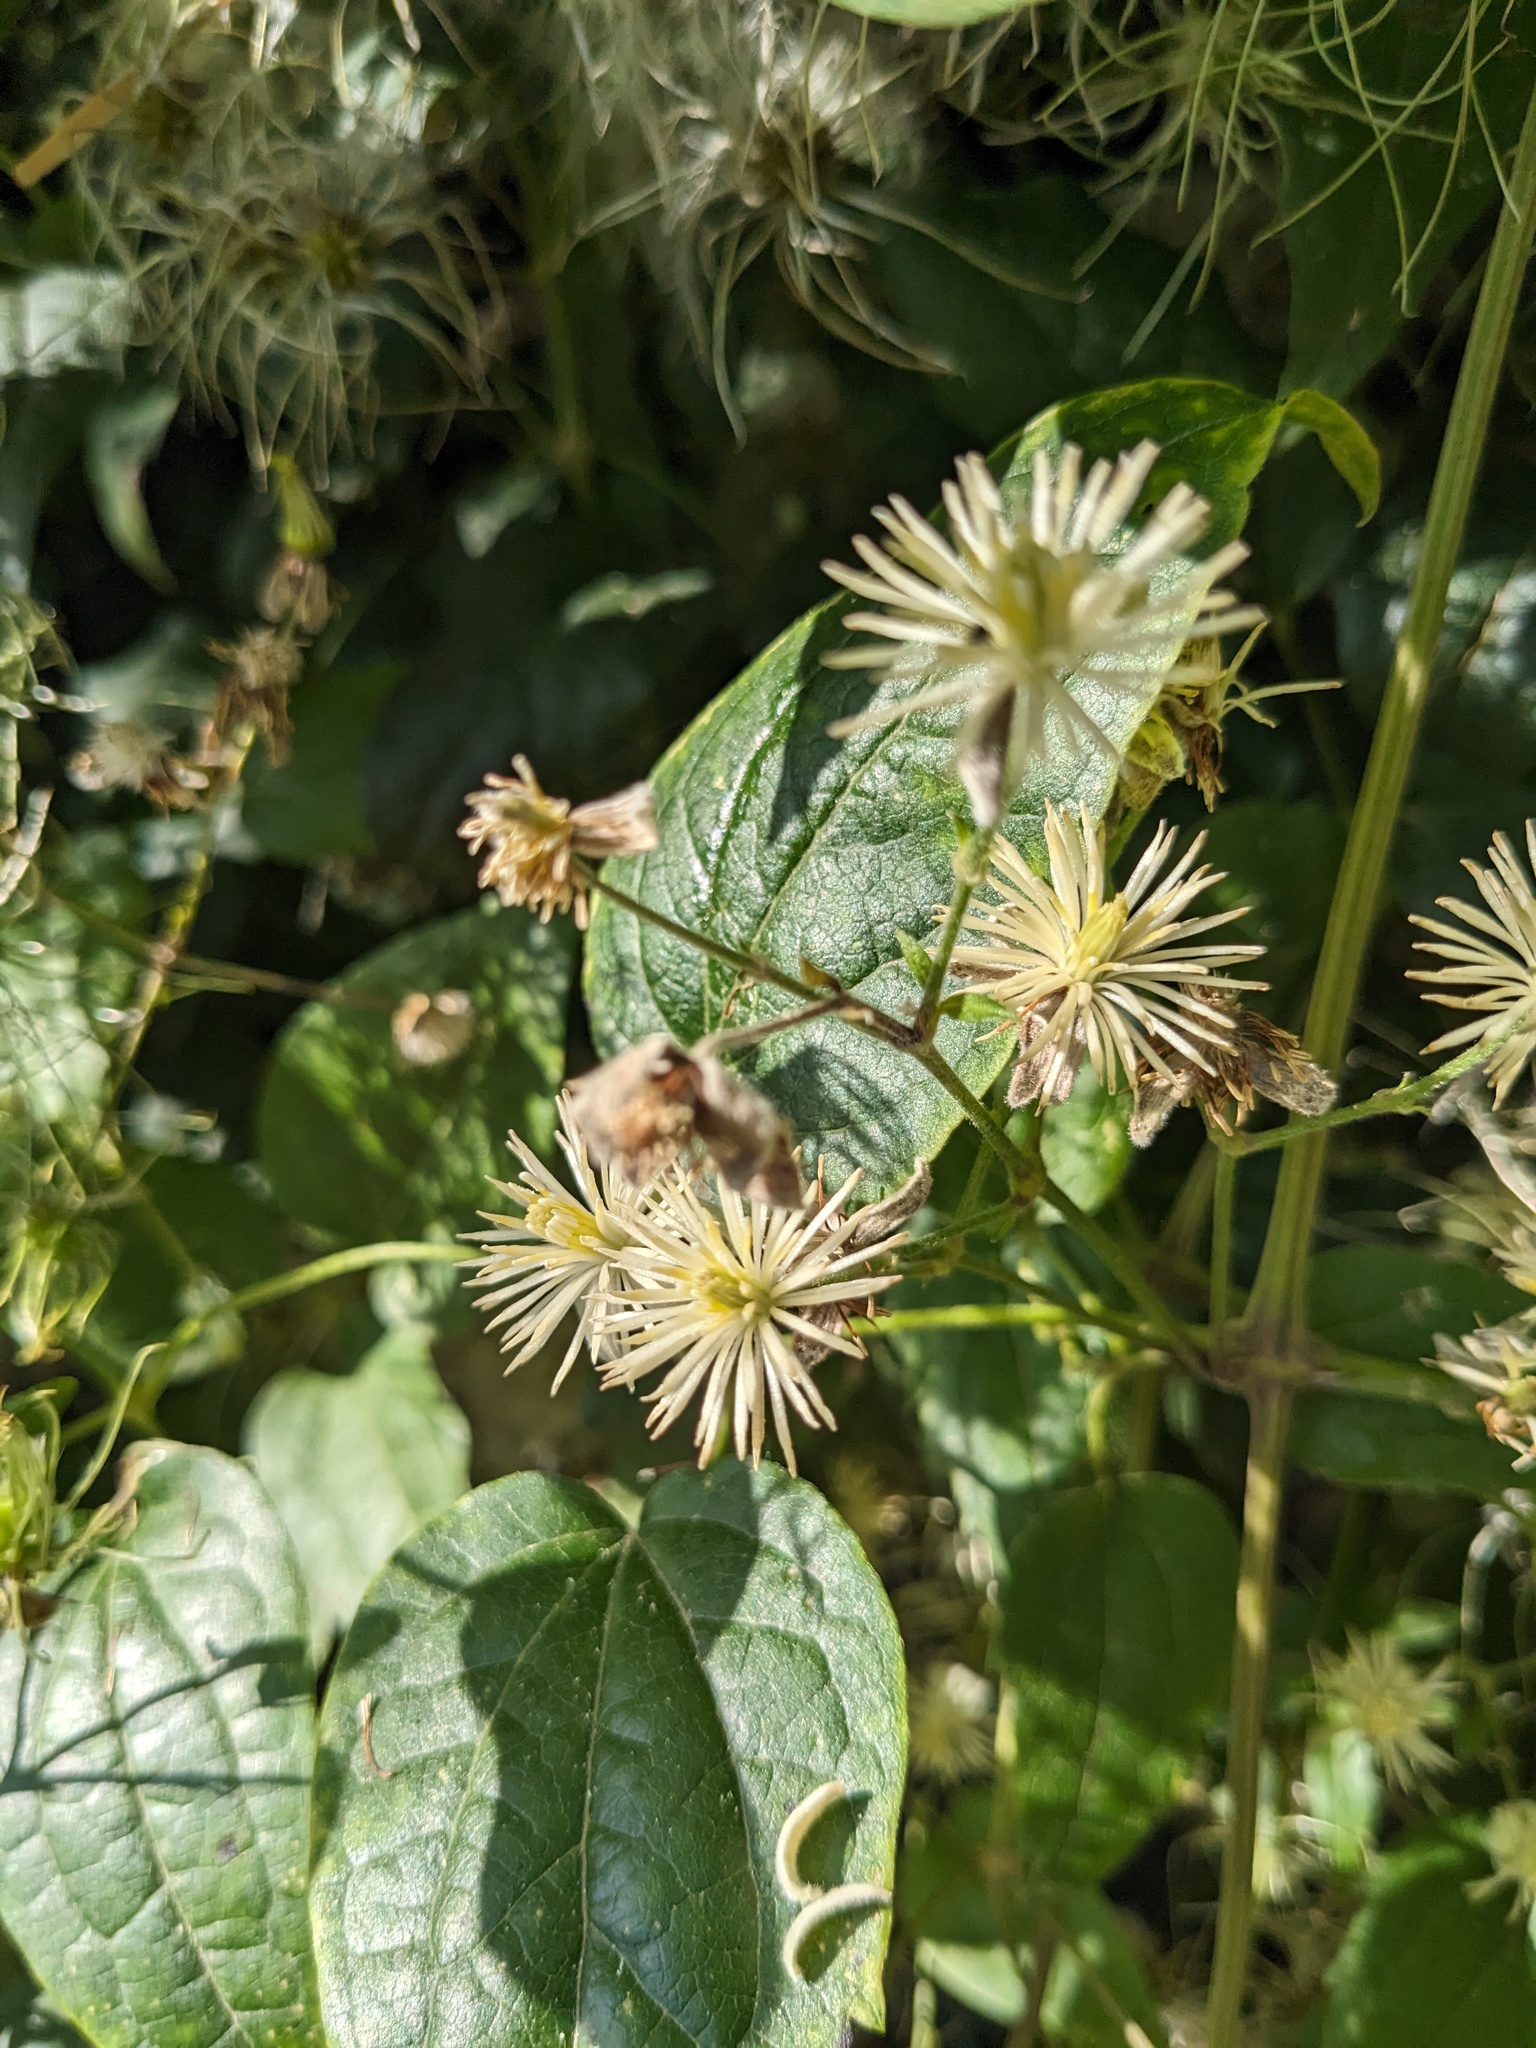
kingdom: Plantae
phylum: Tracheophyta
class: Magnoliopsida
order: Ranunculales
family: Ranunculaceae
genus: Clematis
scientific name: Clematis vitalba
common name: Evergreen clematis
